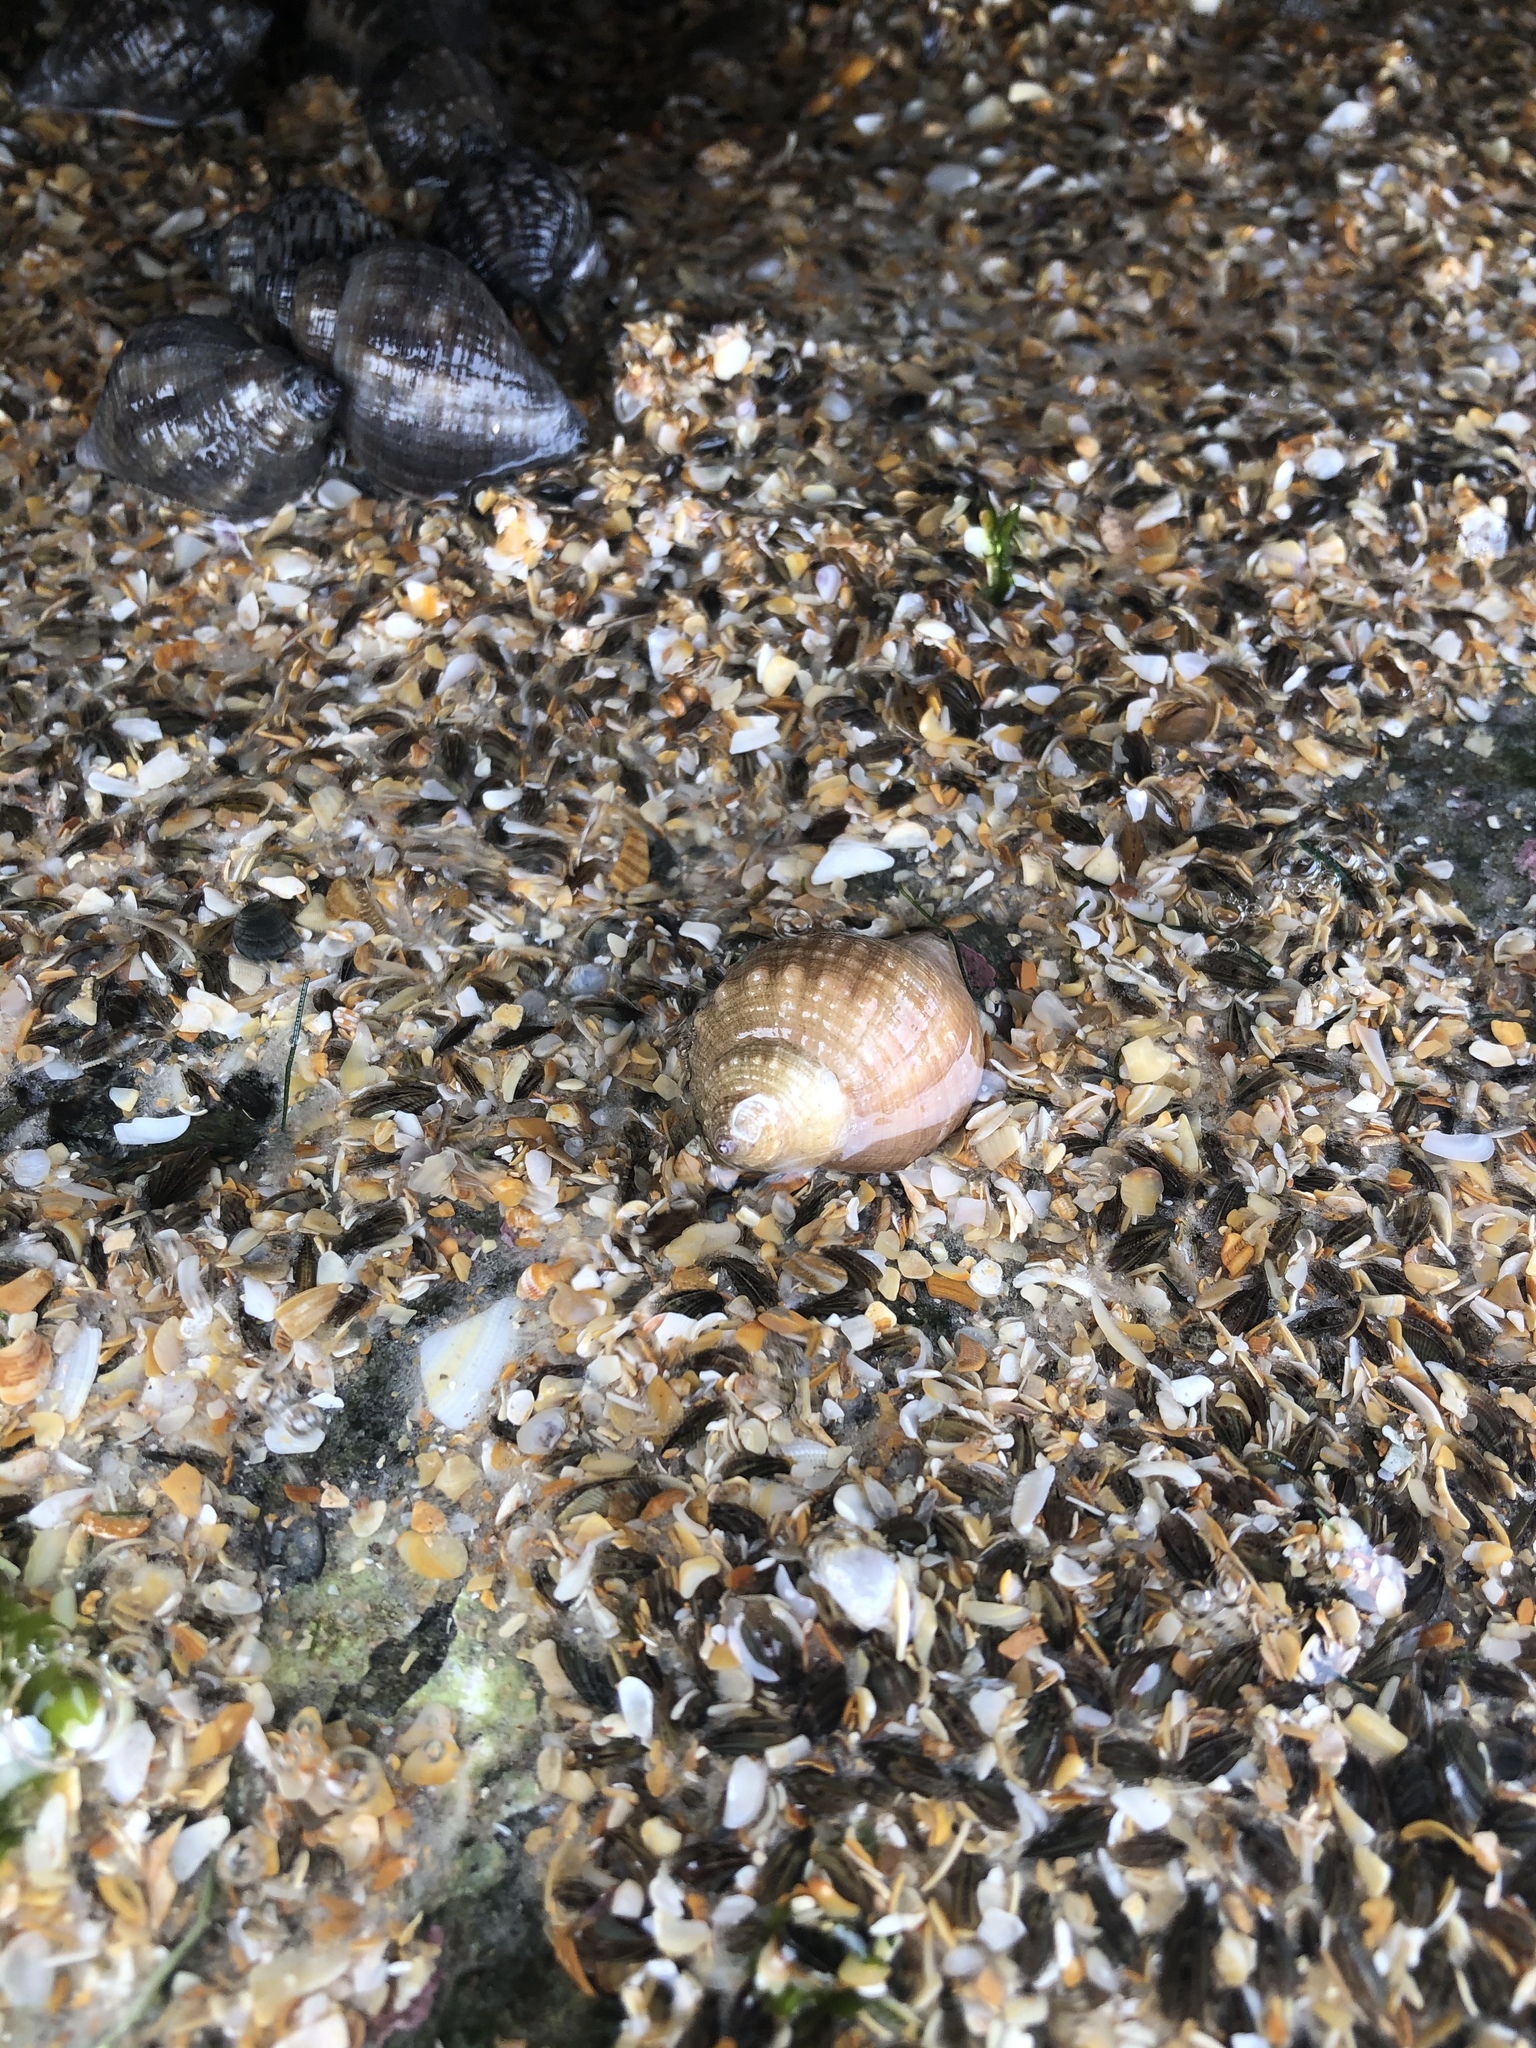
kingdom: Animalia
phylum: Mollusca
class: Gastropoda
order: Neogastropoda
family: Muricidae
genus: Stramonita
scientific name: Stramonita floridana
